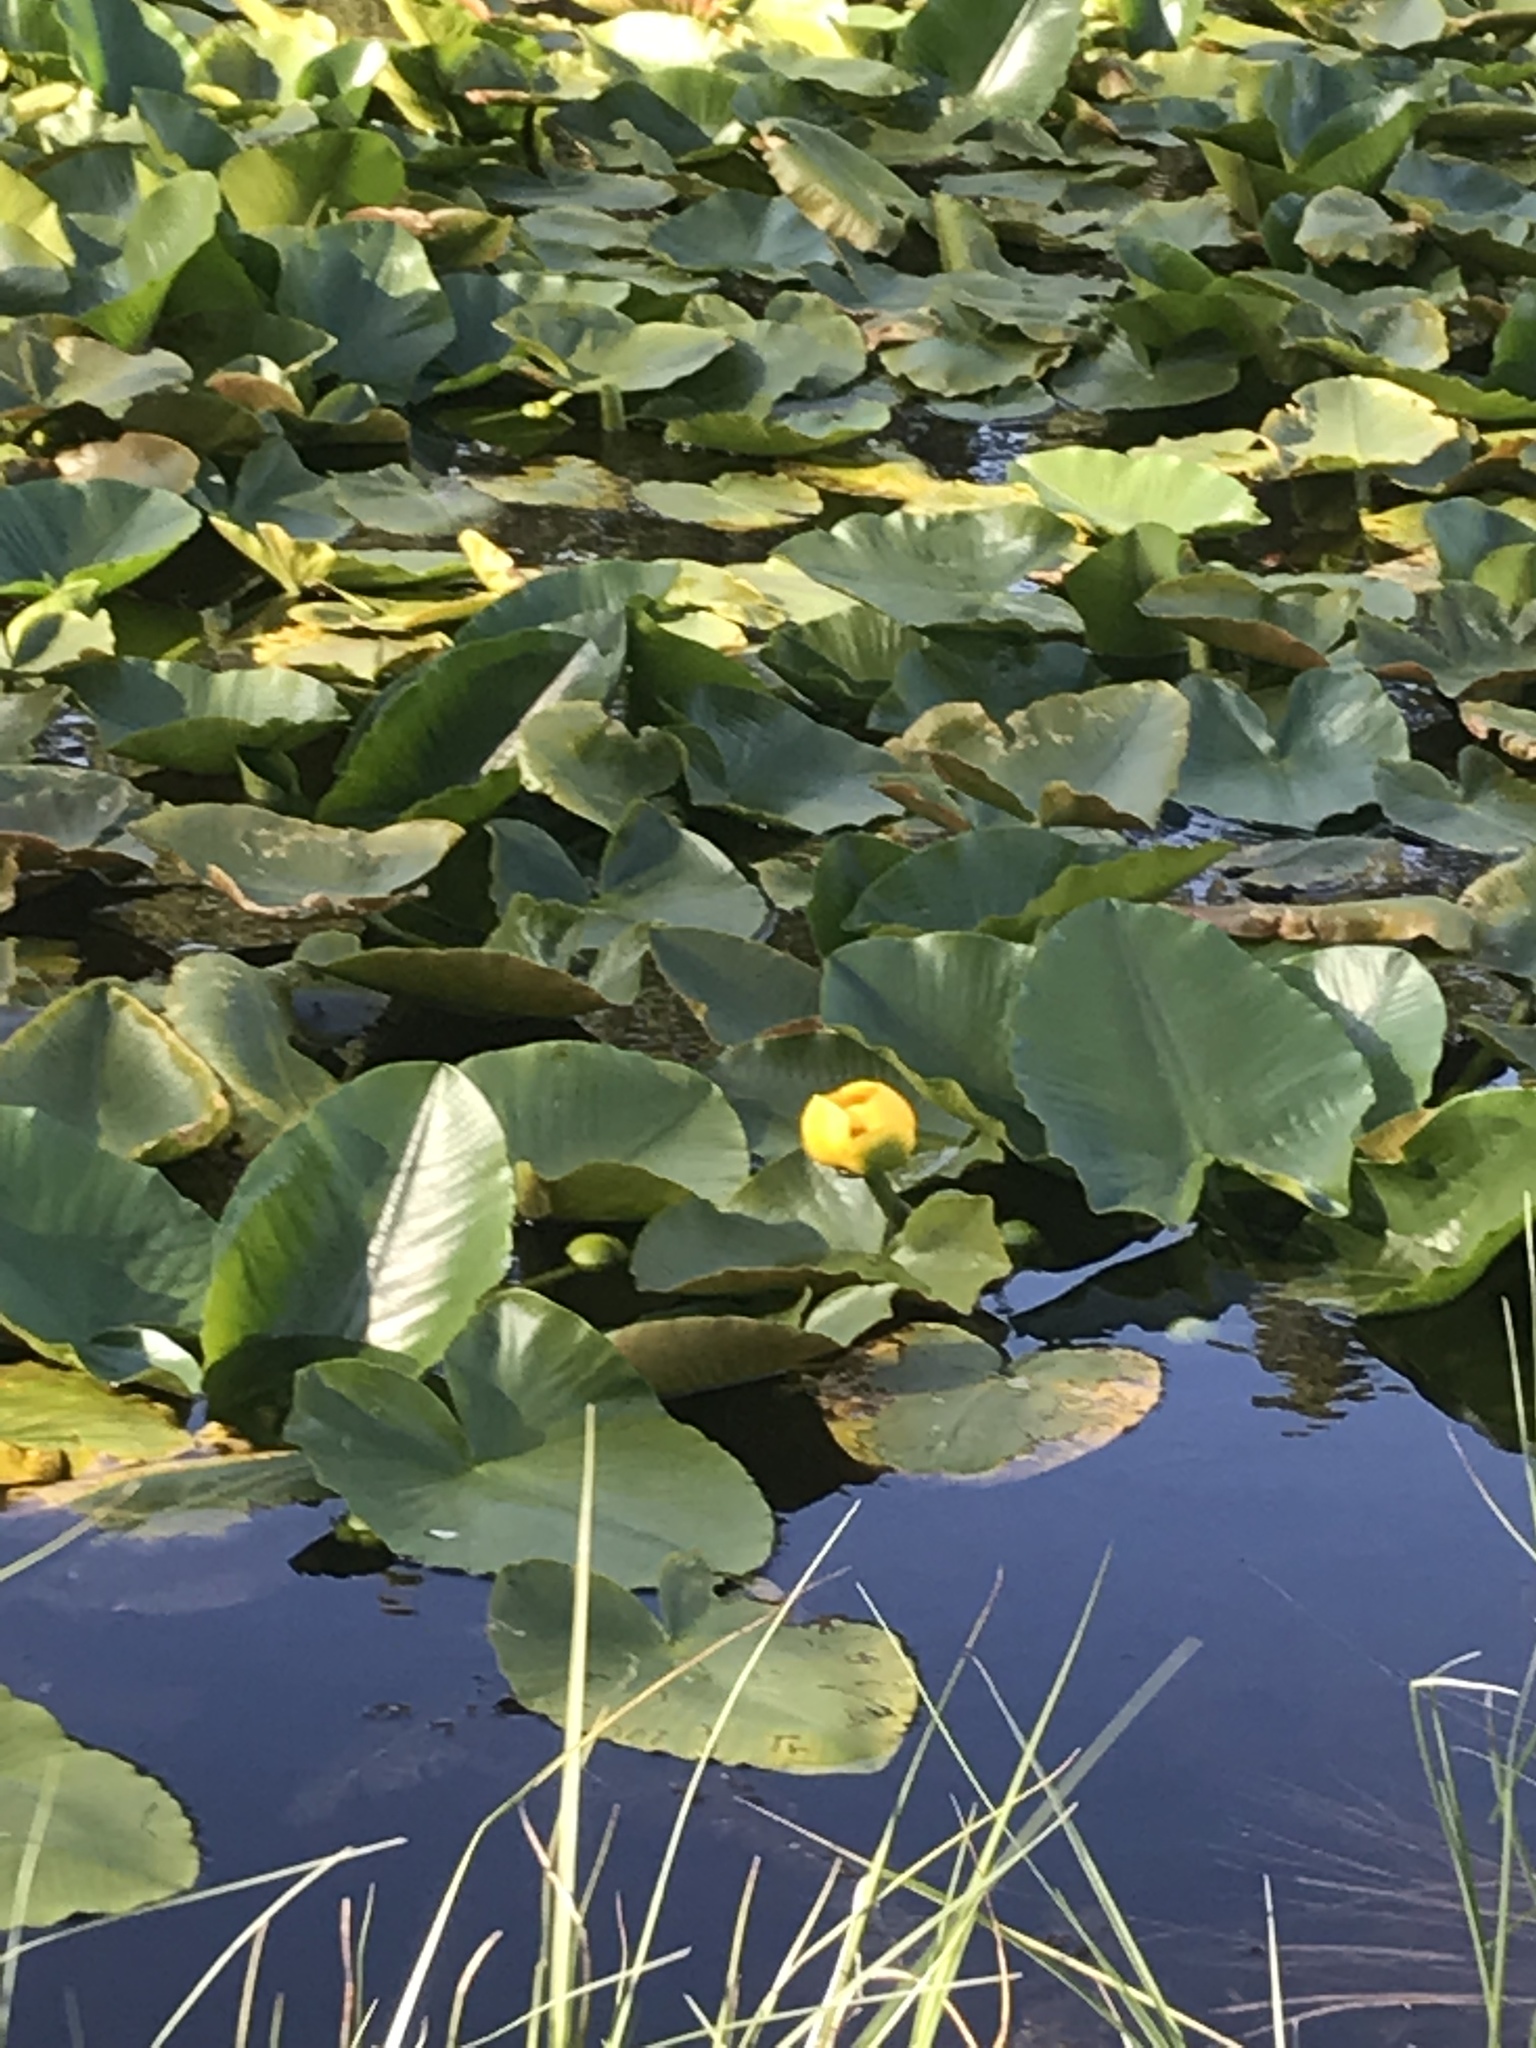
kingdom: Plantae
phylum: Tracheophyta
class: Magnoliopsida
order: Nymphaeales
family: Nymphaeaceae
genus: Nuphar
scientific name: Nuphar polysepala
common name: Rocky mountain cow-lily
